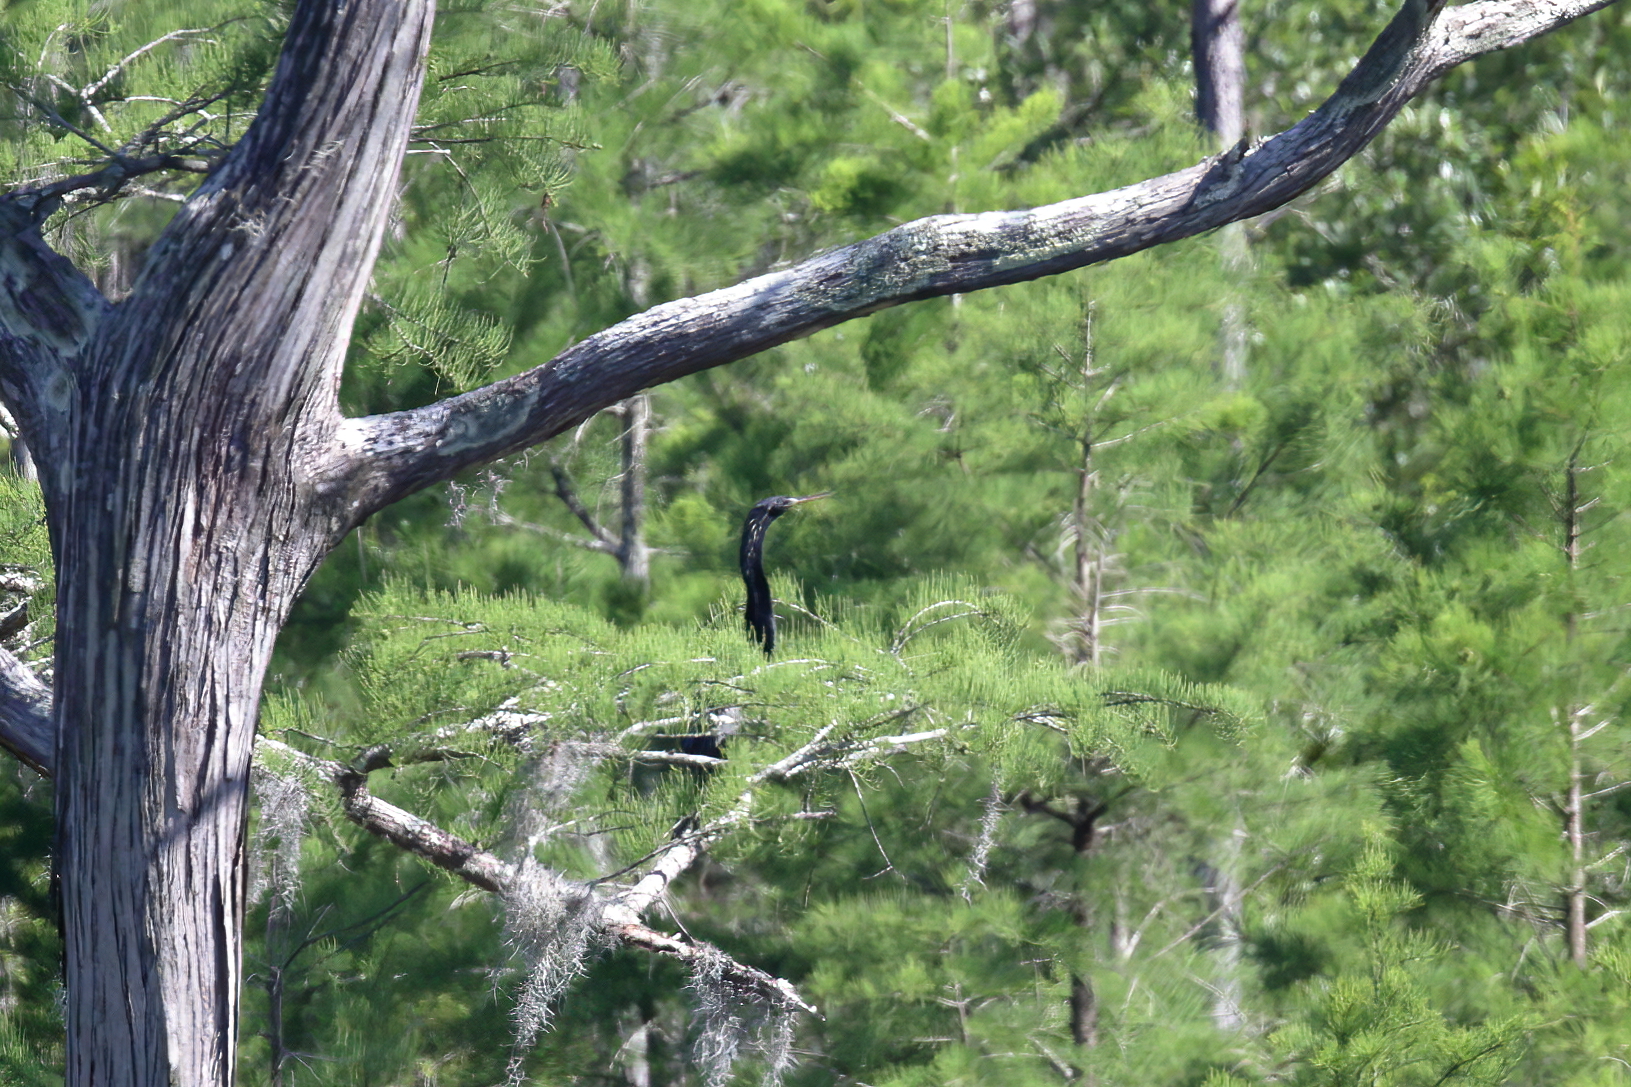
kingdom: Animalia
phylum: Chordata
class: Aves
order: Suliformes
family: Anhingidae
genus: Anhinga
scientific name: Anhinga anhinga
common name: Anhinga
